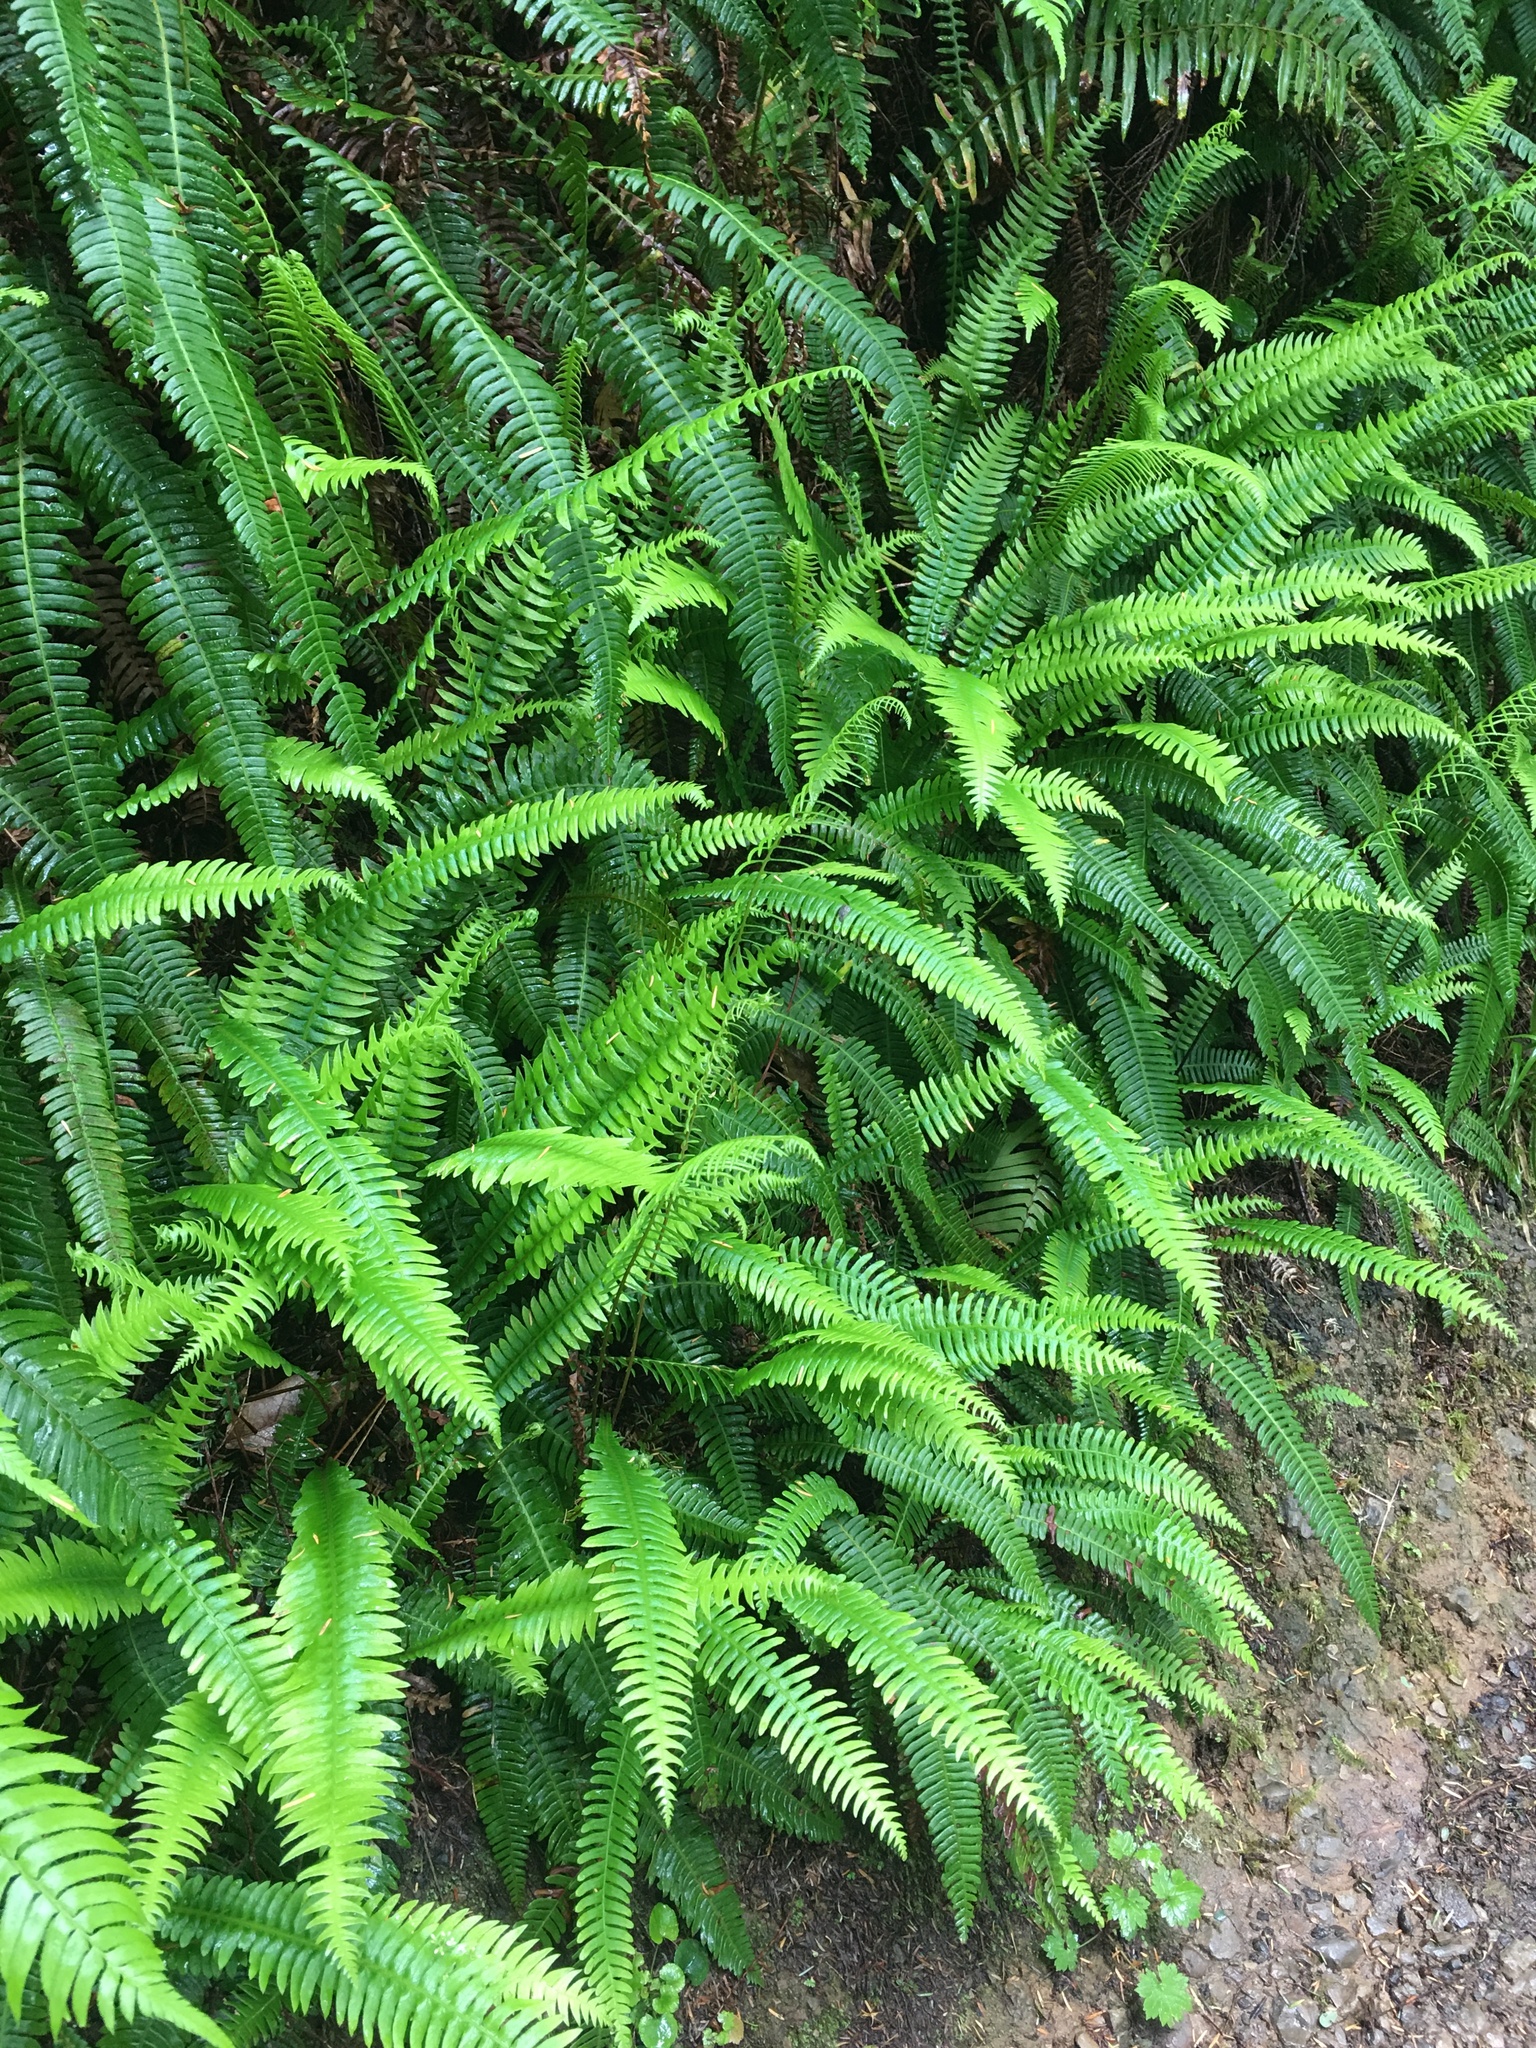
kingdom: Plantae
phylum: Tracheophyta
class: Polypodiopsida
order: Polypodiales
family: Blechnaceae
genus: Struthiopteris
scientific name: Struthiopteris spicant
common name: Deer fern
